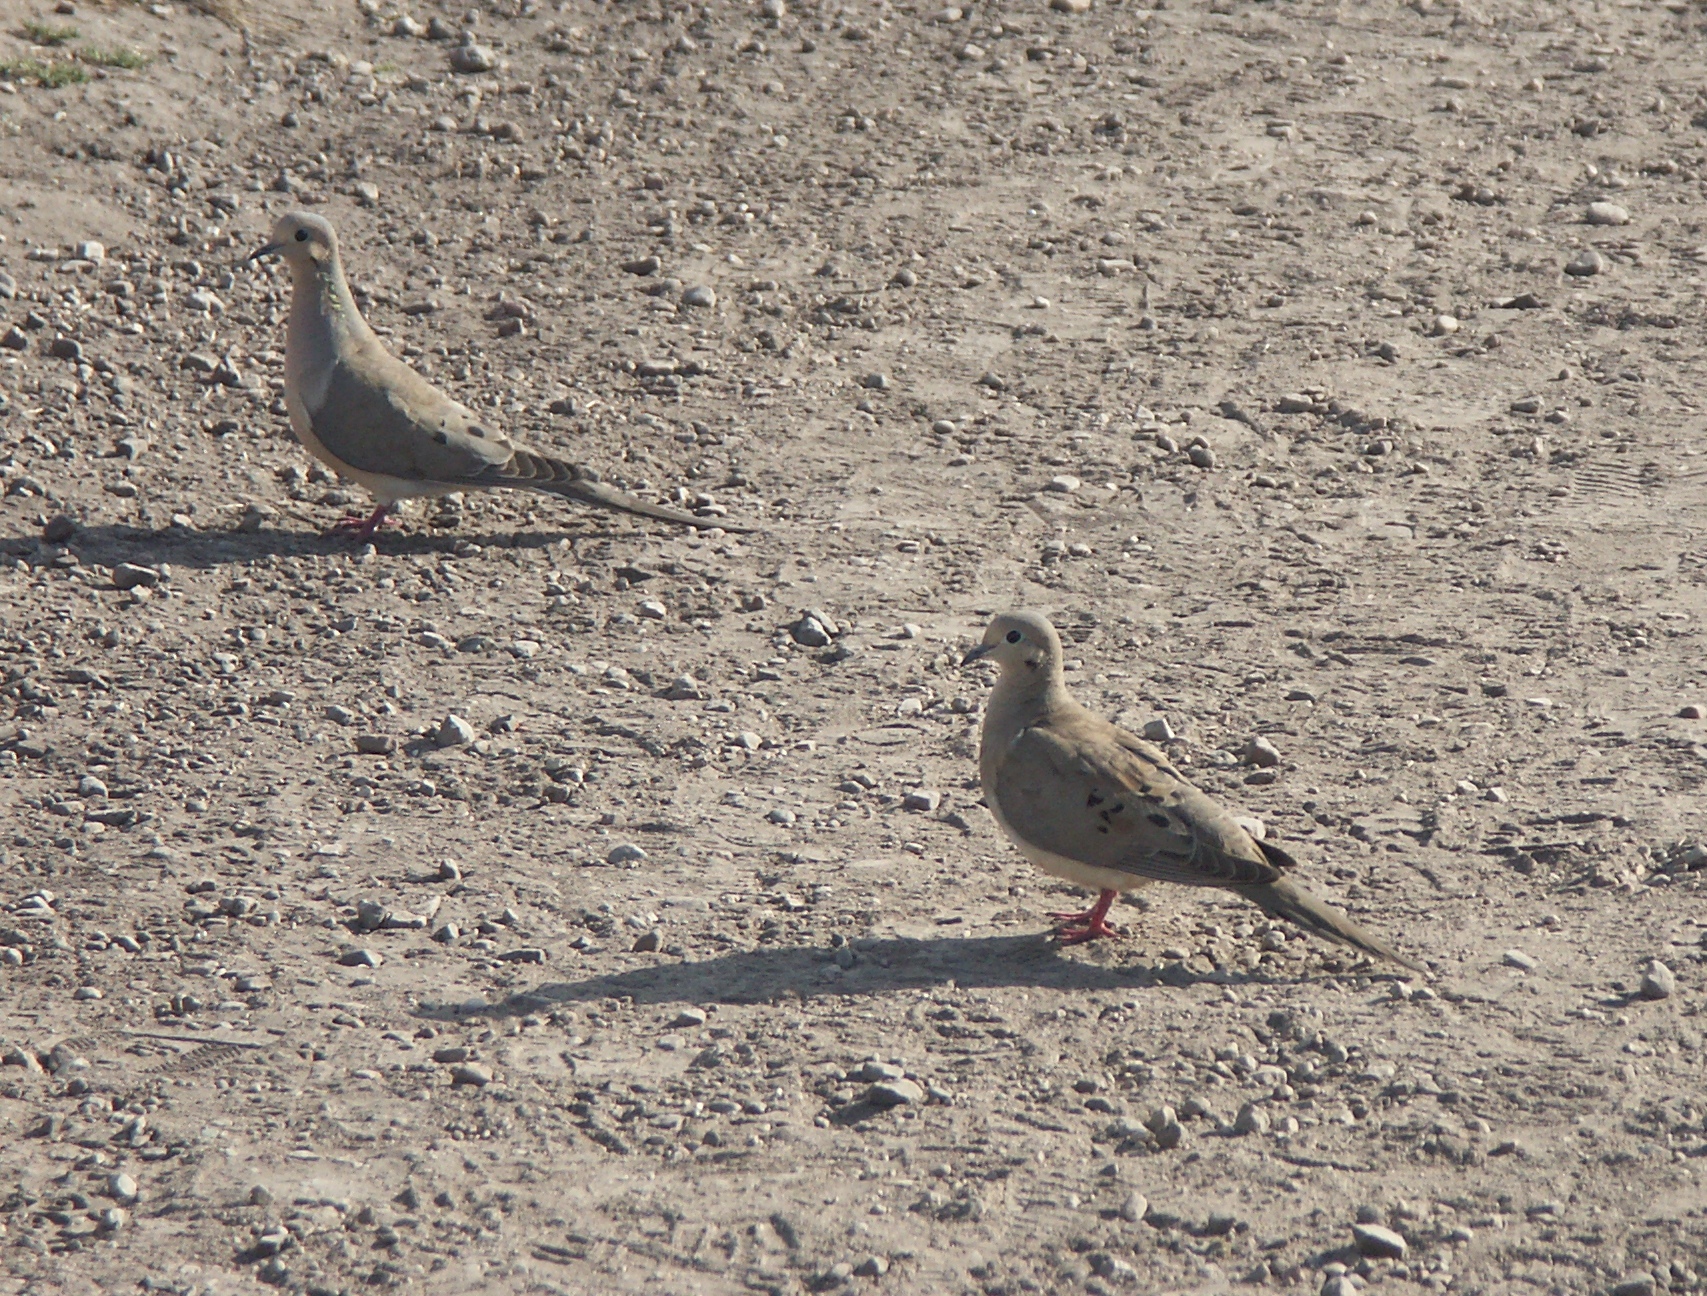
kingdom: Animalia
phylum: Chordata
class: Aves
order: Columbiformes
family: Columbidae
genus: Zenaida
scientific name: Zenaida macroura
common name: Mourning dove
